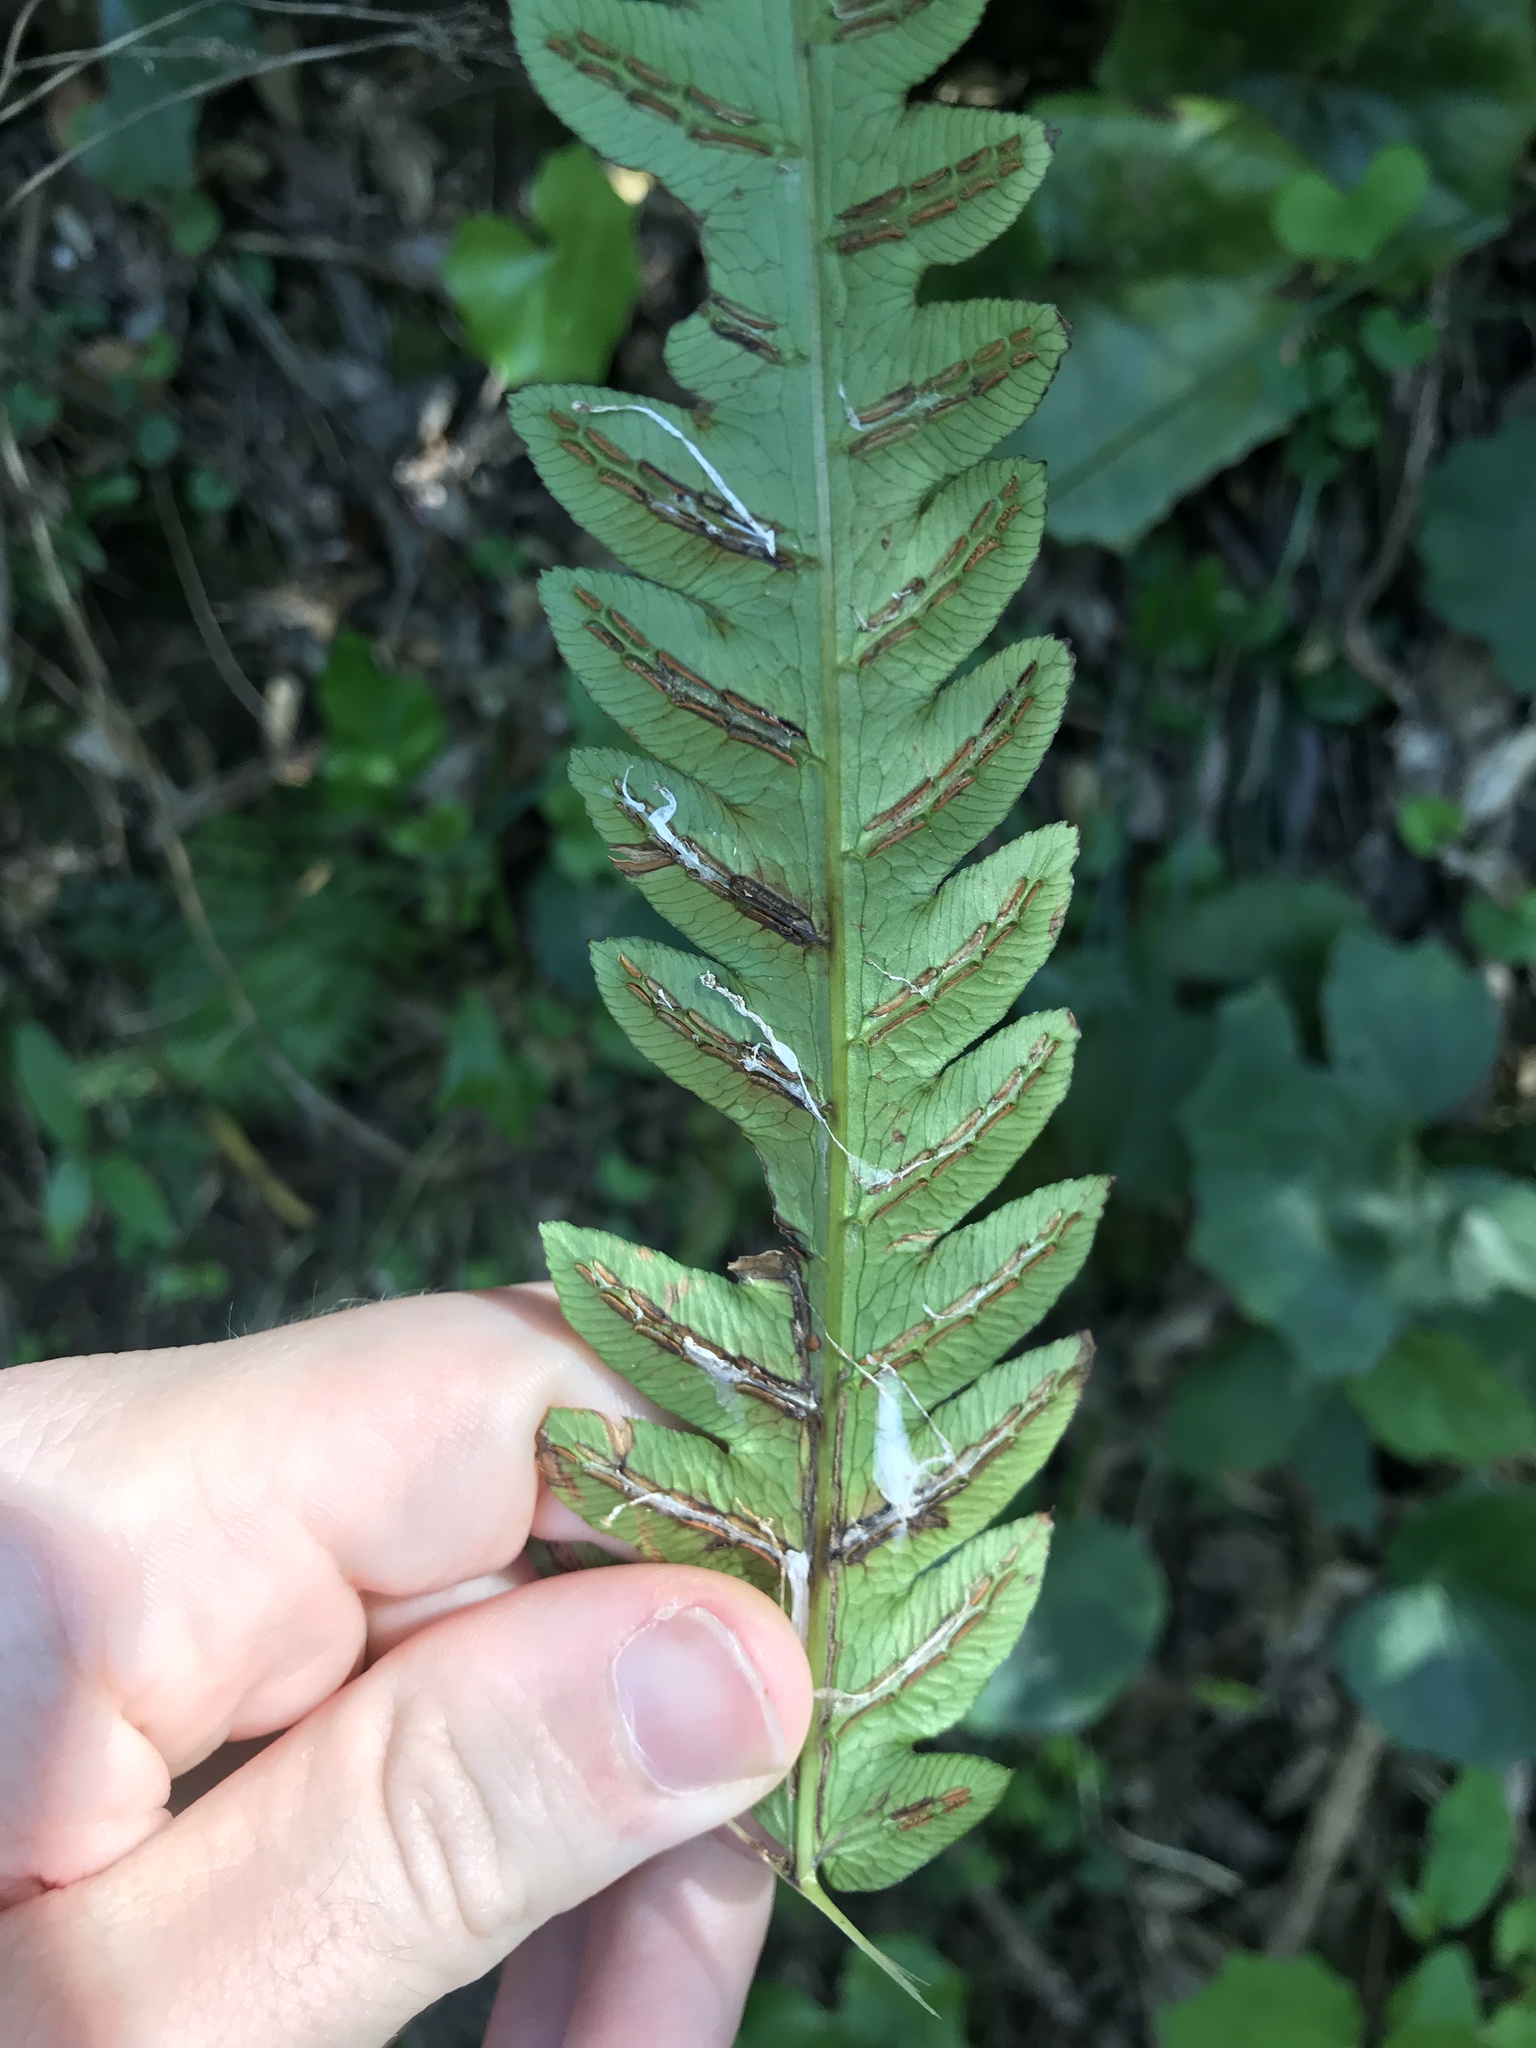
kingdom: Plantae
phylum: Tracheophyta
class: Polypodiopsida
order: Polypodiales
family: Blechnaceae
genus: Woodwardia
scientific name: Woodwardia japonica
